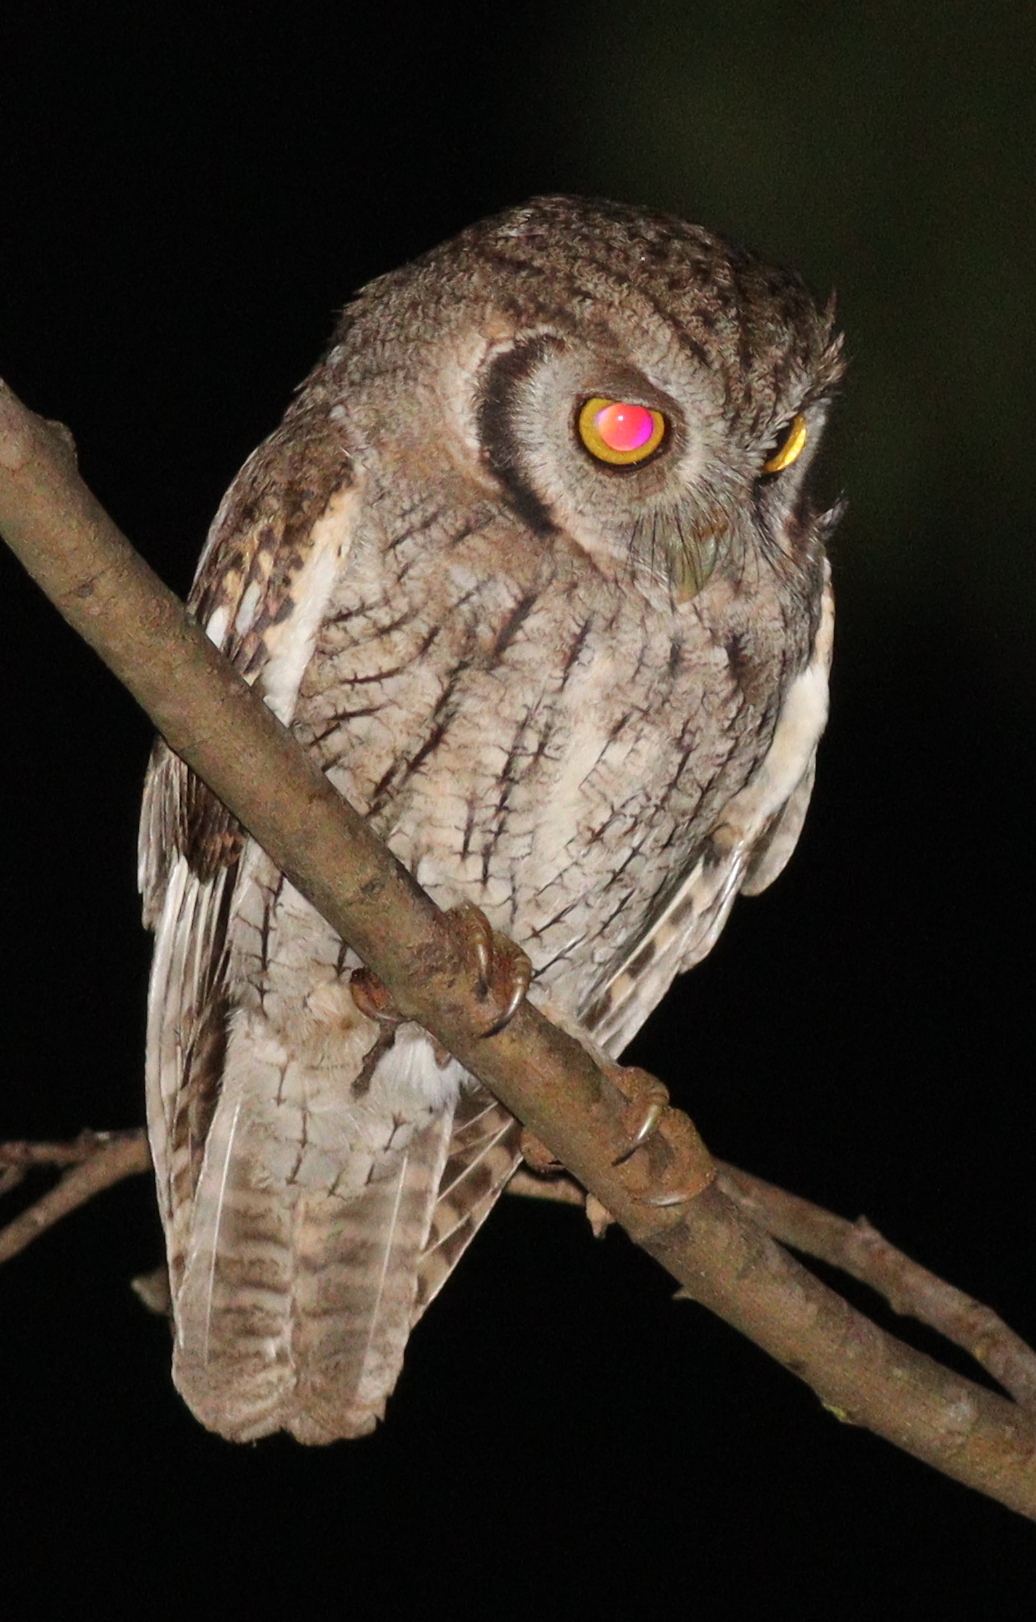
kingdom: Animalia
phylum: Chordata
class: Aves
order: Strigiformes
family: Strigidae
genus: Megascops
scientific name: Megascops choliba
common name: Tropical screech-owl
